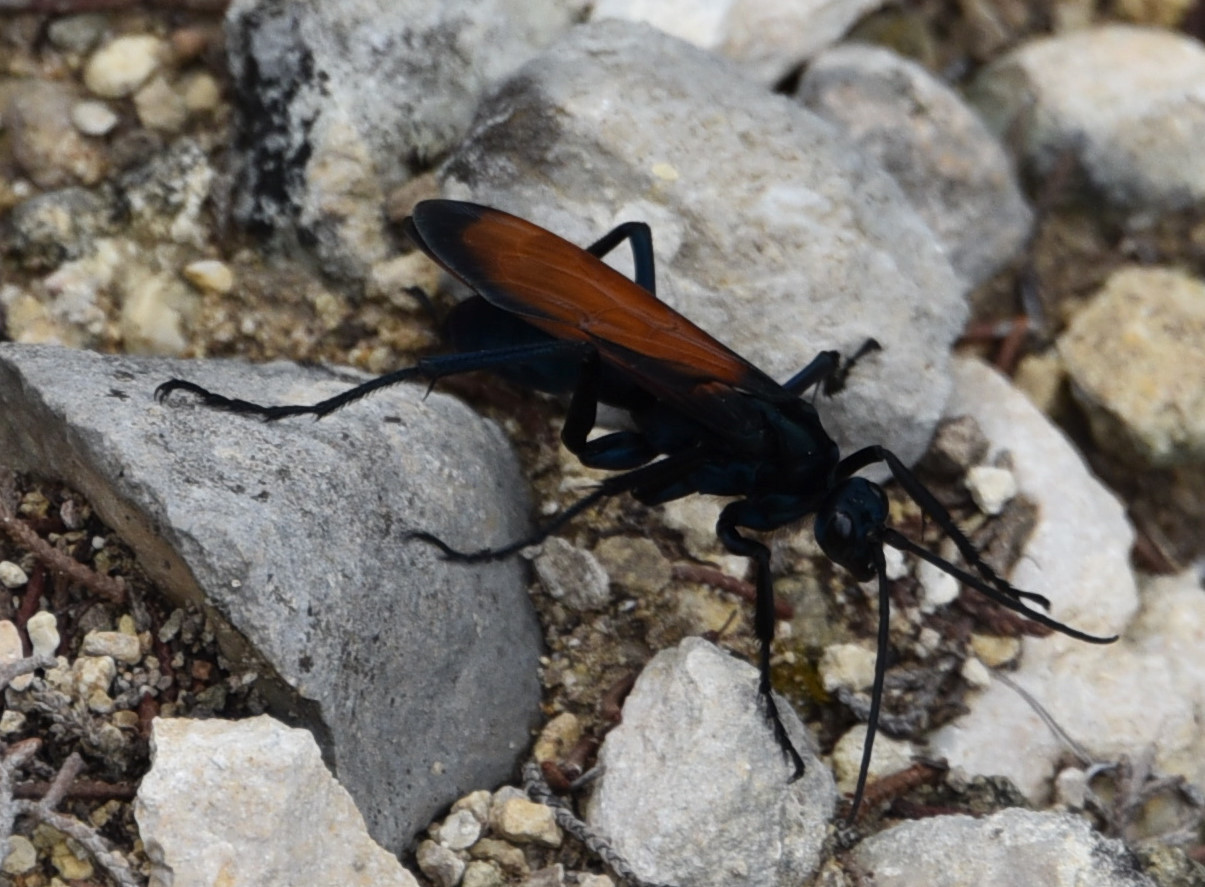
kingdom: Animalia
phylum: Arthropoda
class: Insecta
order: Hymenoptera
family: Pompilidae
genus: Pepsis
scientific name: Pepsis thisbe
